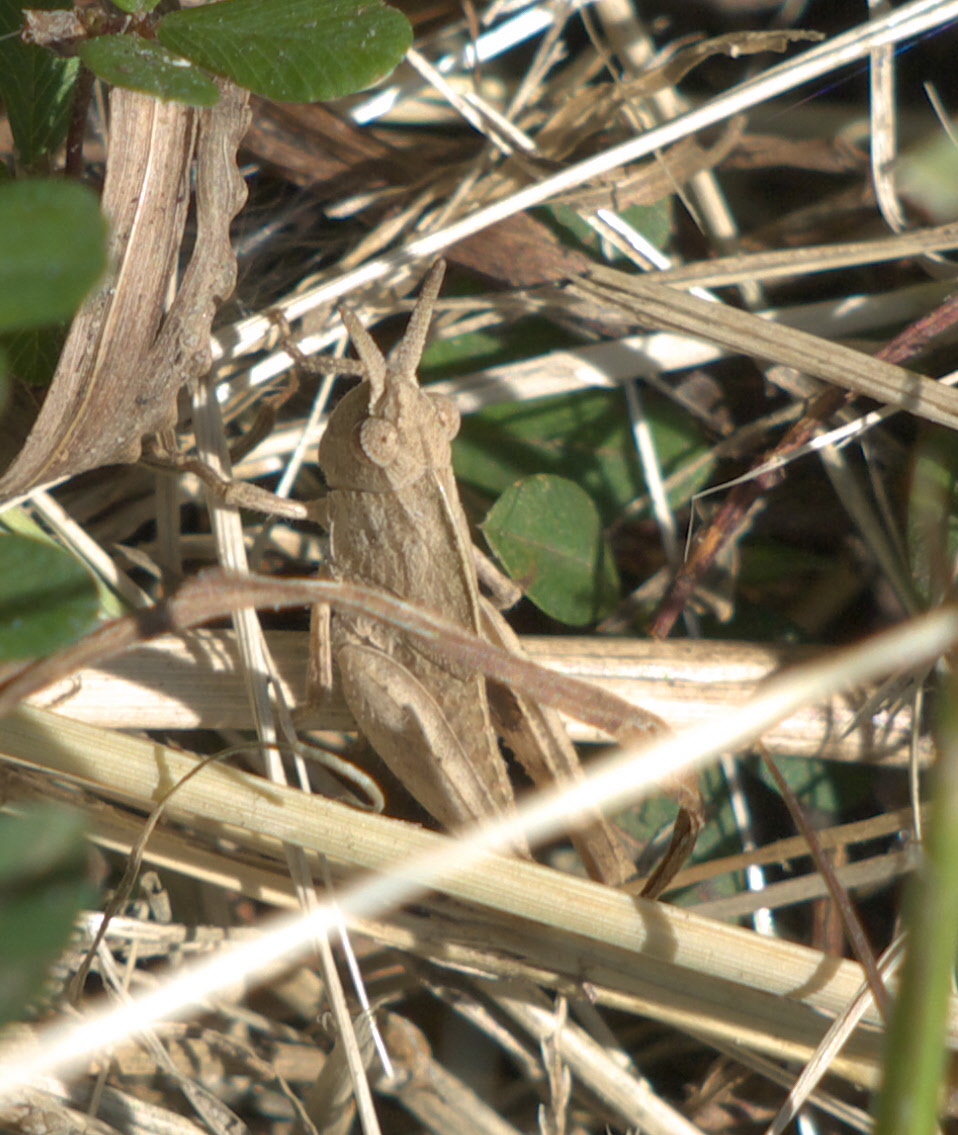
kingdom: Animalia
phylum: Arthropoda
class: Insecta
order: Orthoptera
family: Acrididae
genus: Chortophaga
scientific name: Chortophaga viridifasciata
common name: Green-striped grasshopper
